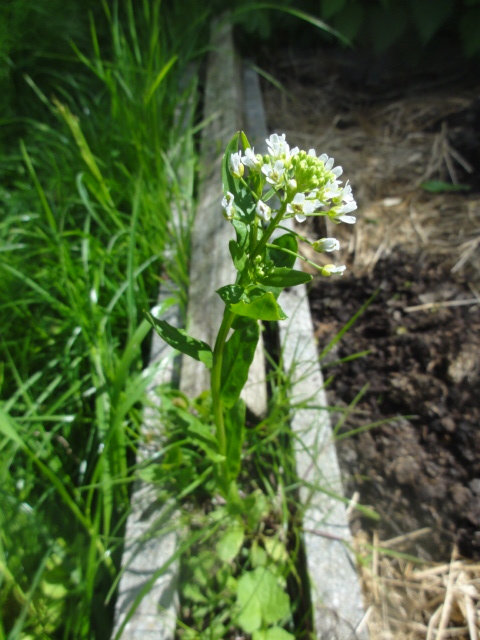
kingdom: Plantae
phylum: Tracheophyta
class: Magnoliopsida
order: Brassicales
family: Brassicaceae
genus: Thlaspi
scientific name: Thlaspi arvense
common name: Field pennycress
